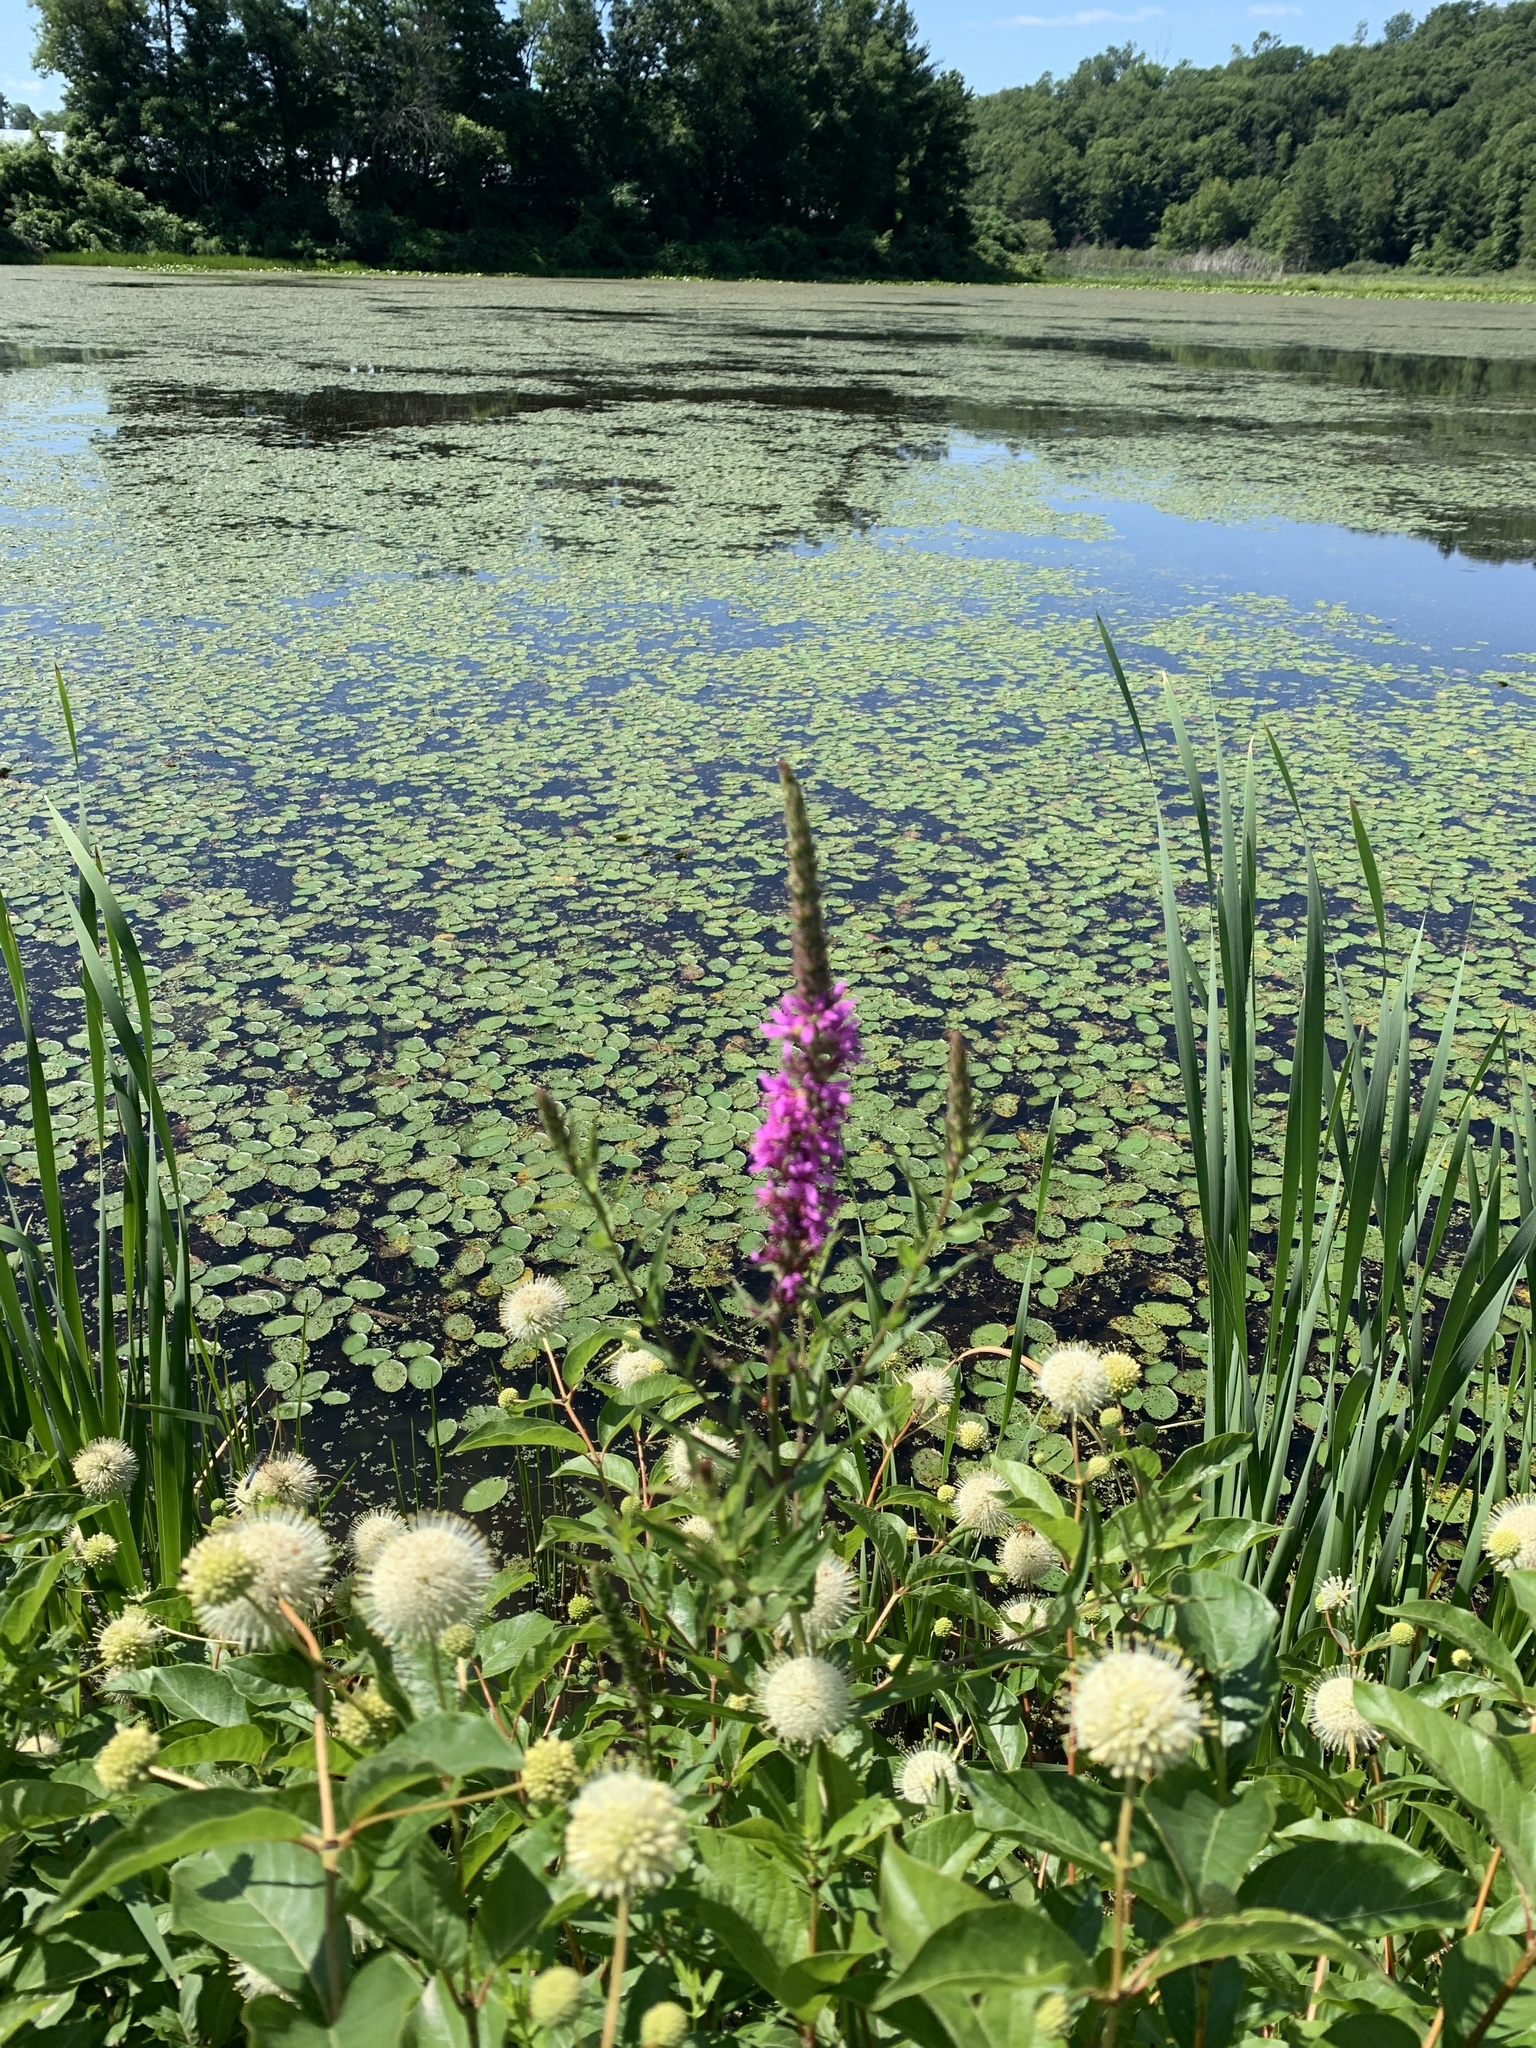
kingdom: Plantae
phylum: Tracheophyta
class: Magnoliopsida
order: Myrtales
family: Lythraceae
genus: Lythrum
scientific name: Lythrum salicaria
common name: Purple loosestrife
